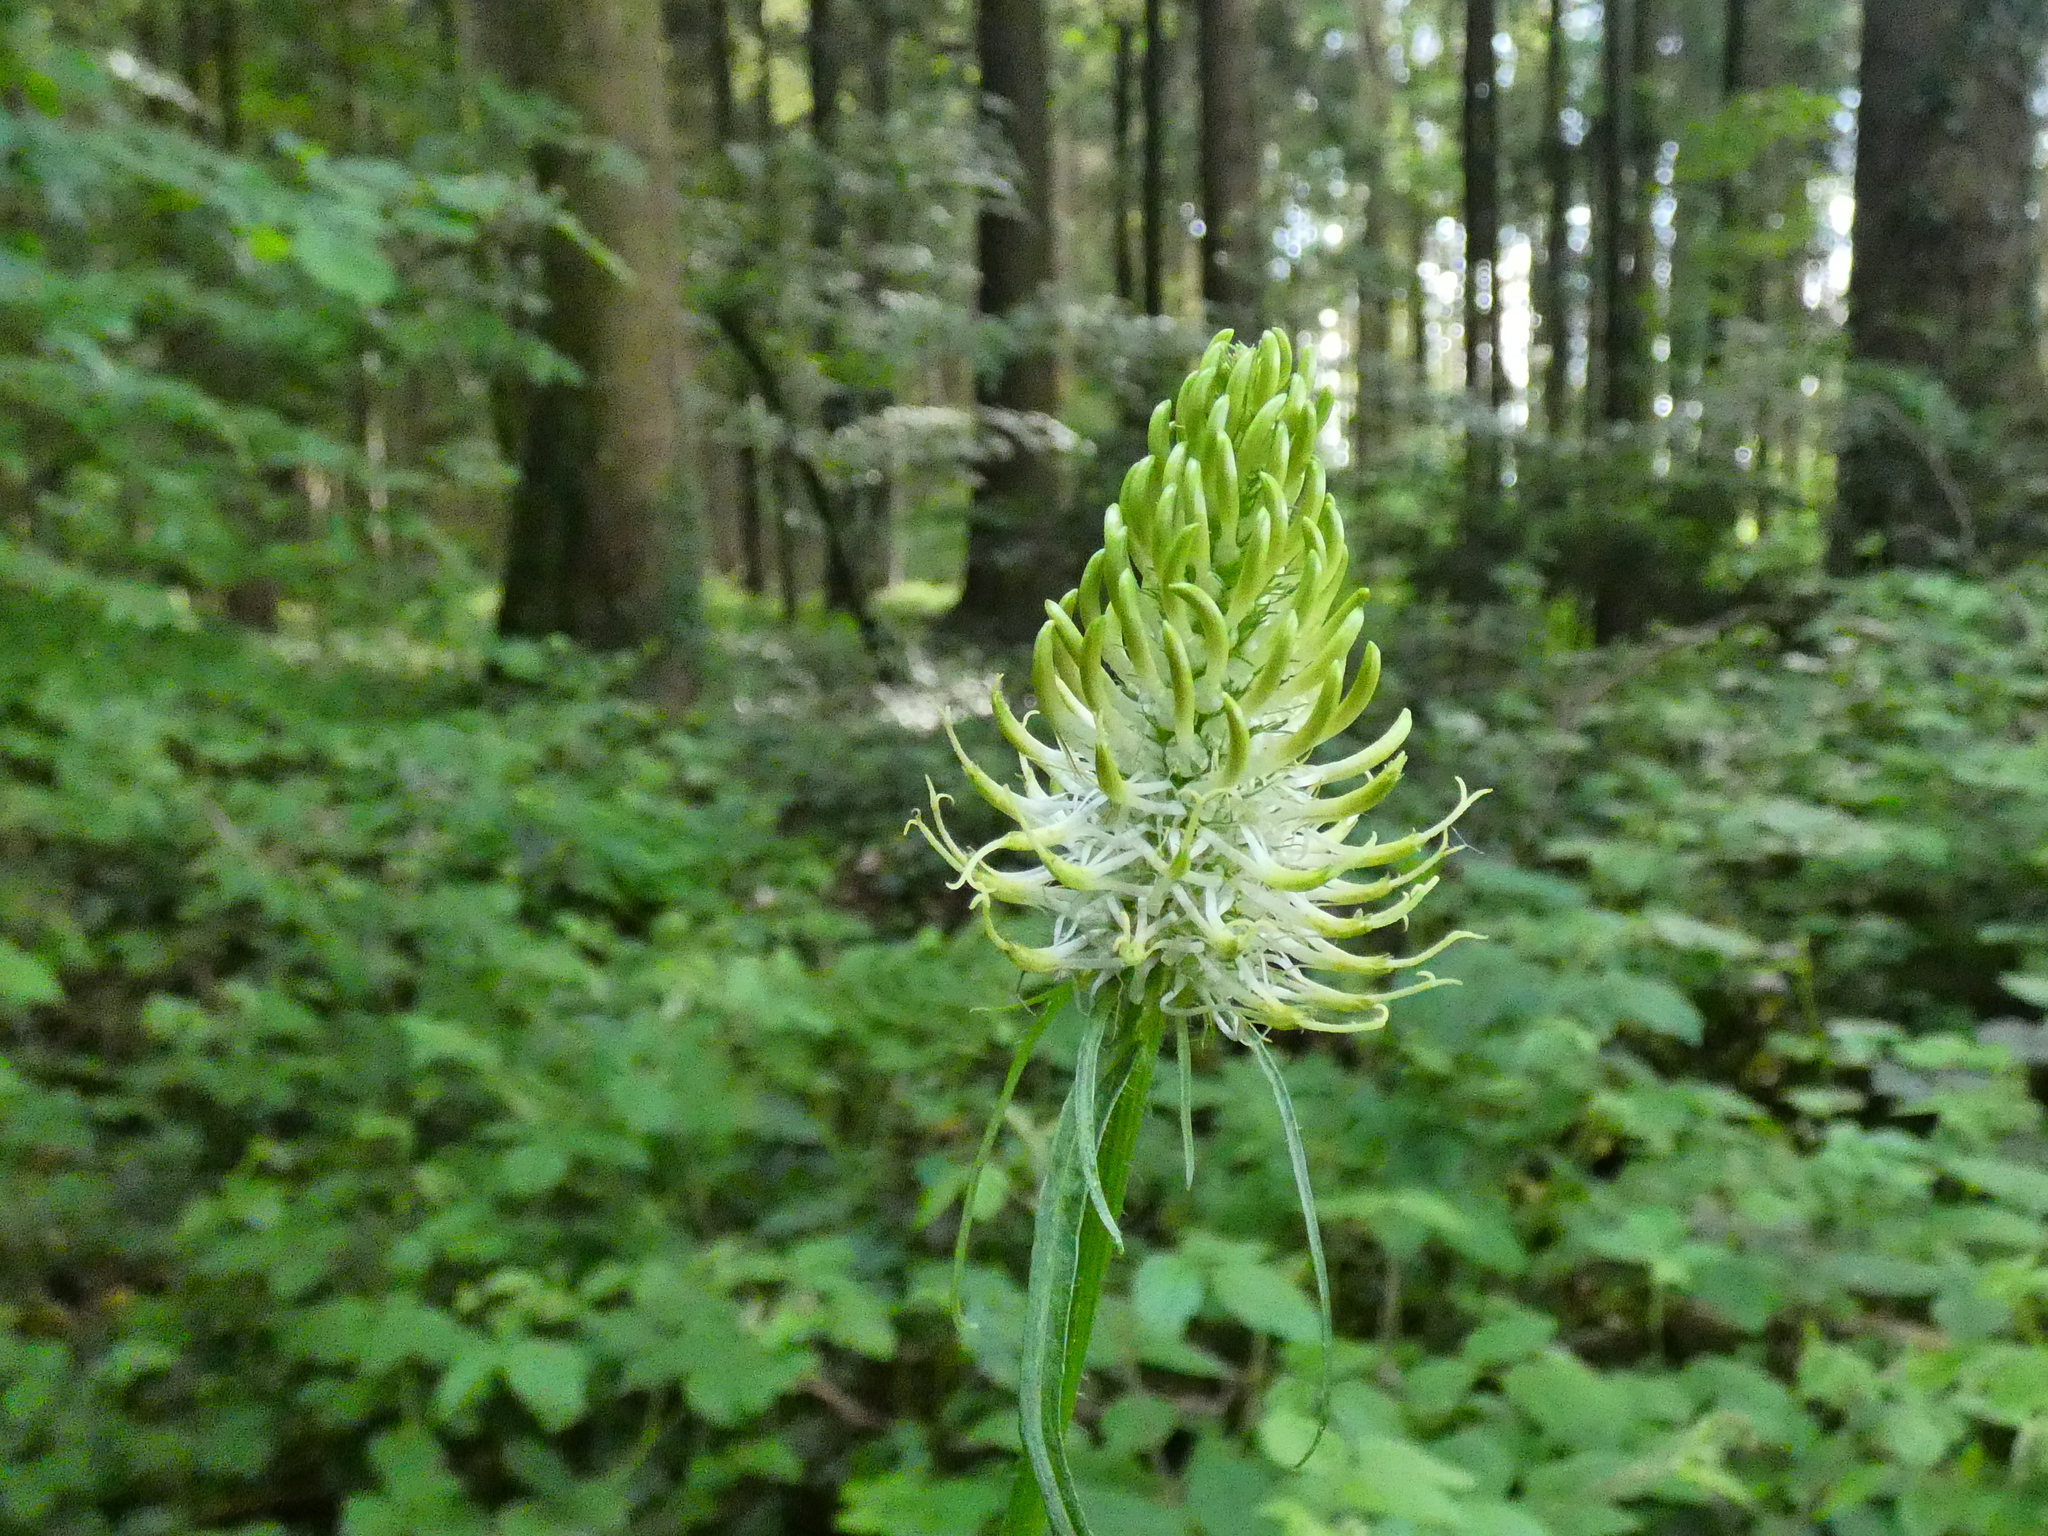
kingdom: Plantae
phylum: Tracheophyta
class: Magnoliopsida
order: Asterales
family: Campanulaceae
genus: Phyteuma
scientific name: Phyteuma spicatum
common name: Spiked rampion
